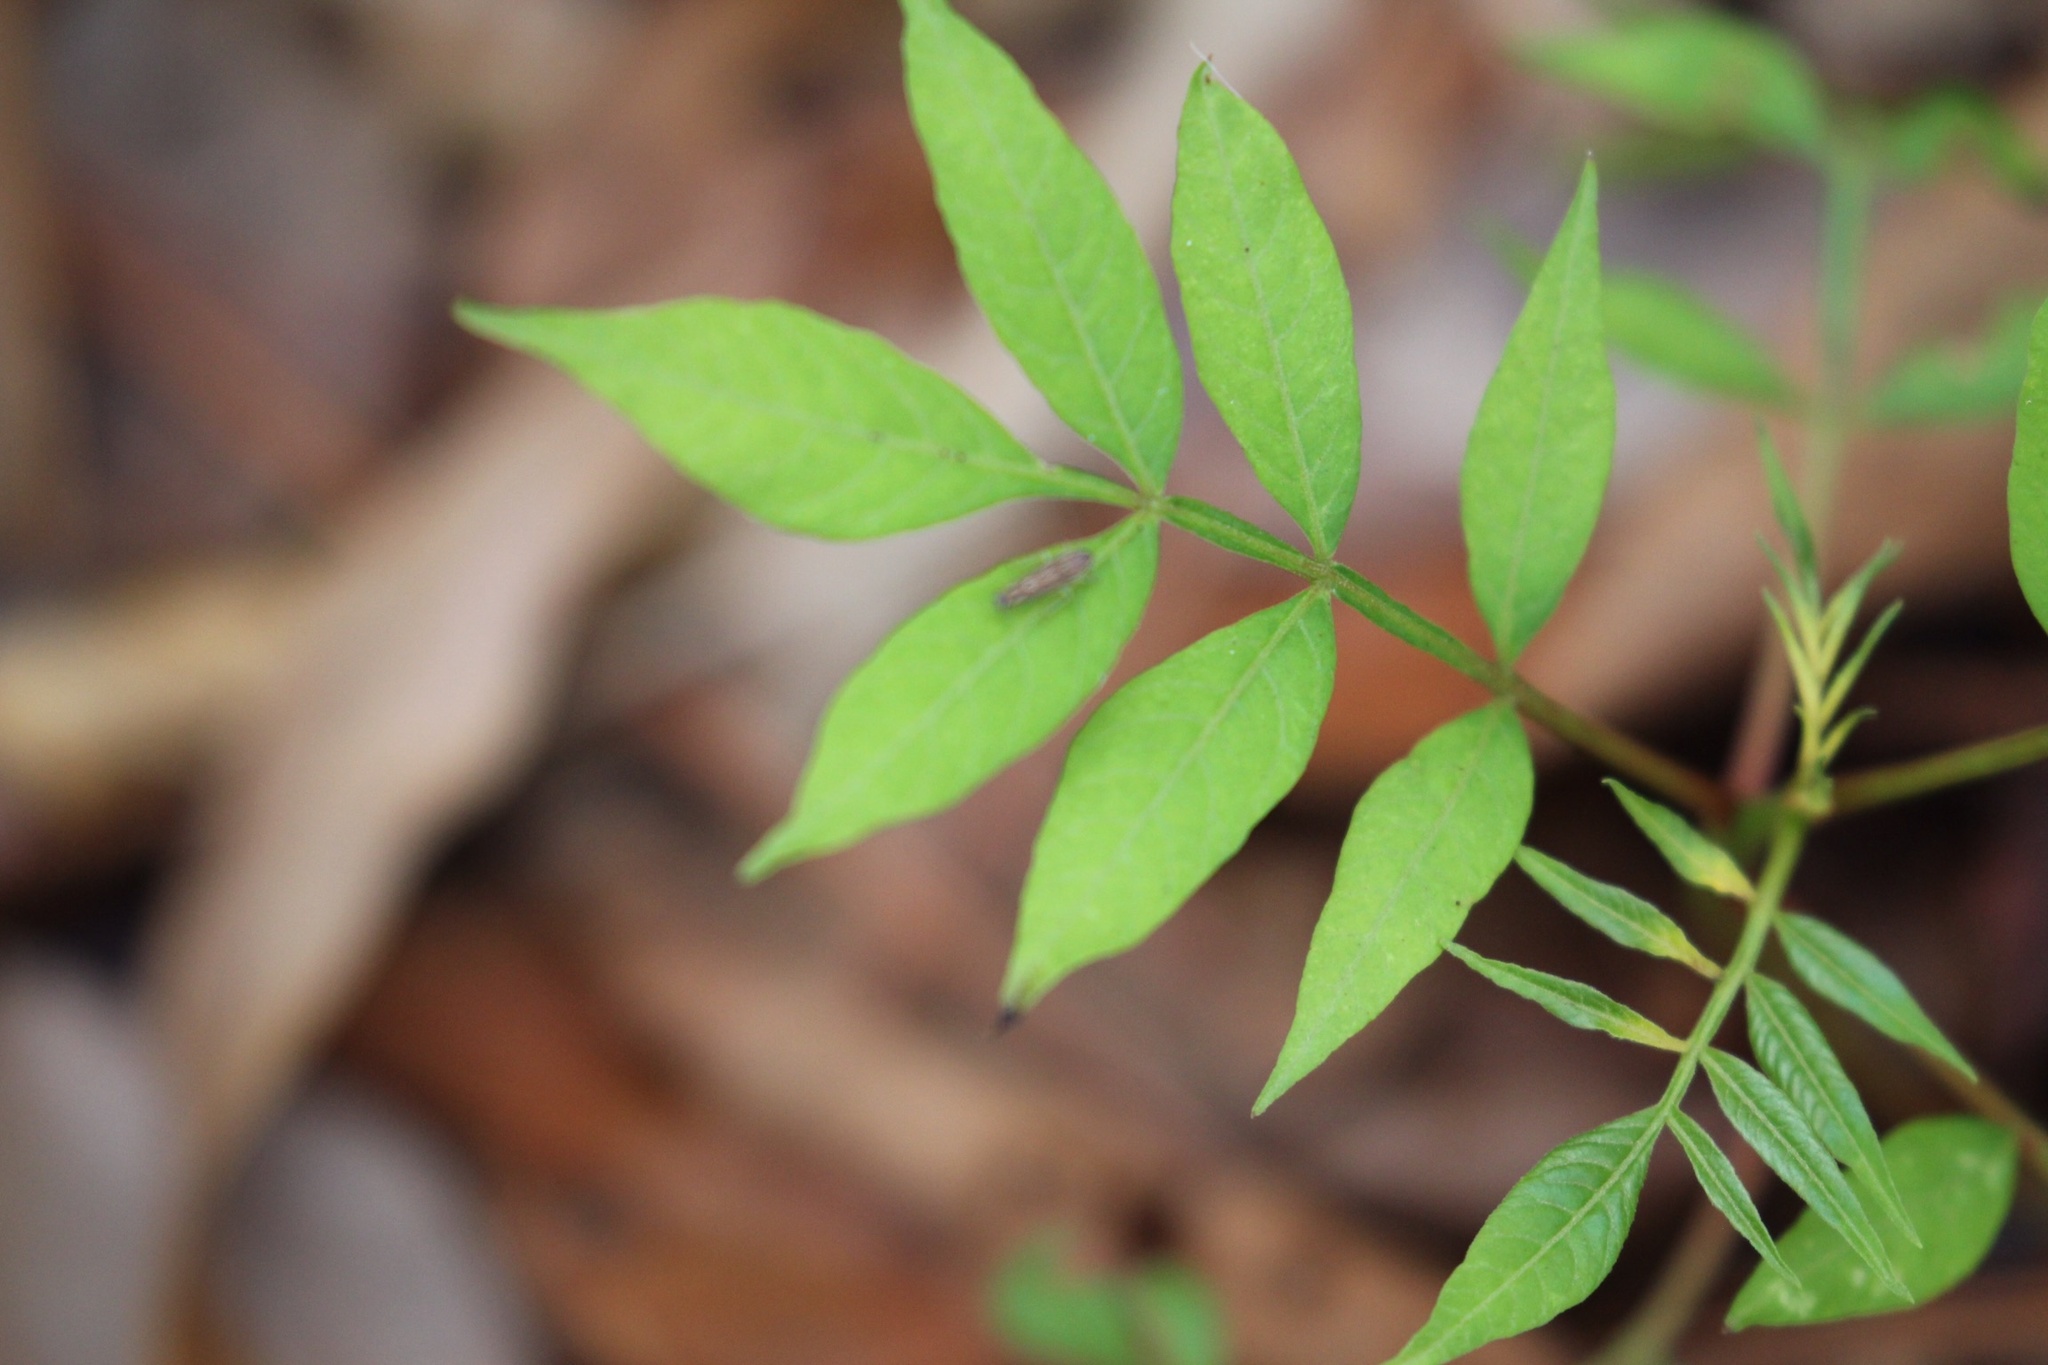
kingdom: Plantae
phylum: Tracheophyta
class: Magnoliopsida
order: Sapindales
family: Anacardiaceae
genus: Rhus
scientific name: Rhus copallina
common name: Shining sumac
